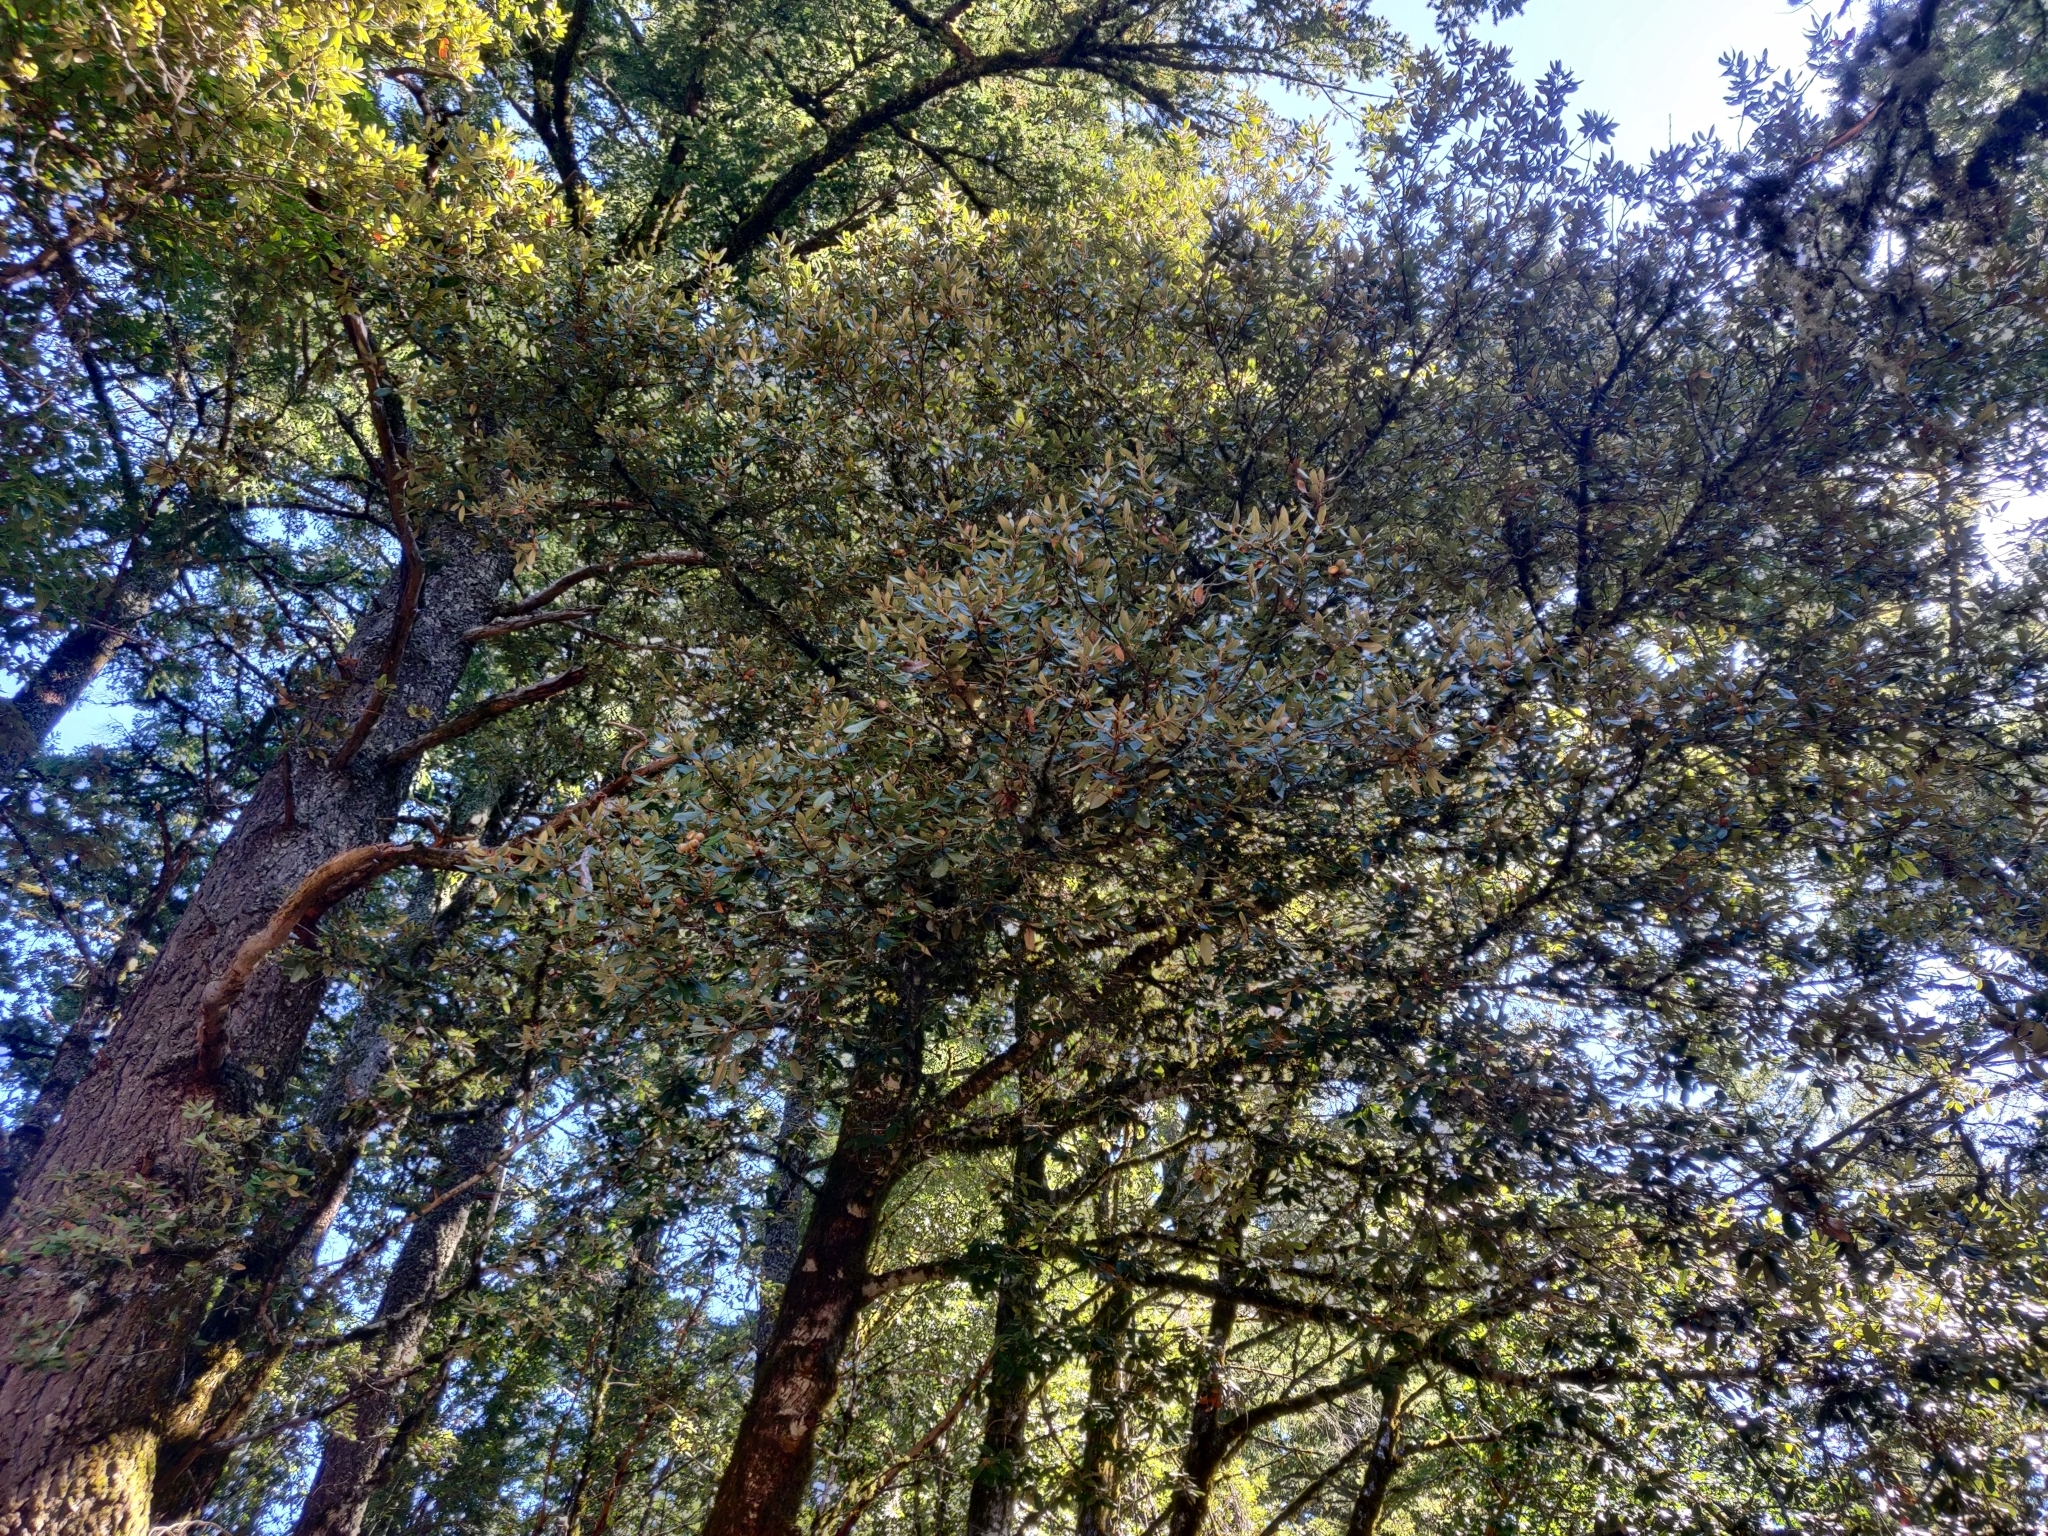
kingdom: Plantae
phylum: Tracheophyta
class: Magnoliopsida
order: Fagales
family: Fagaceae
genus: Notholithocarpus
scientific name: Notholithocarpus densiflorus
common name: Tan bark oak
